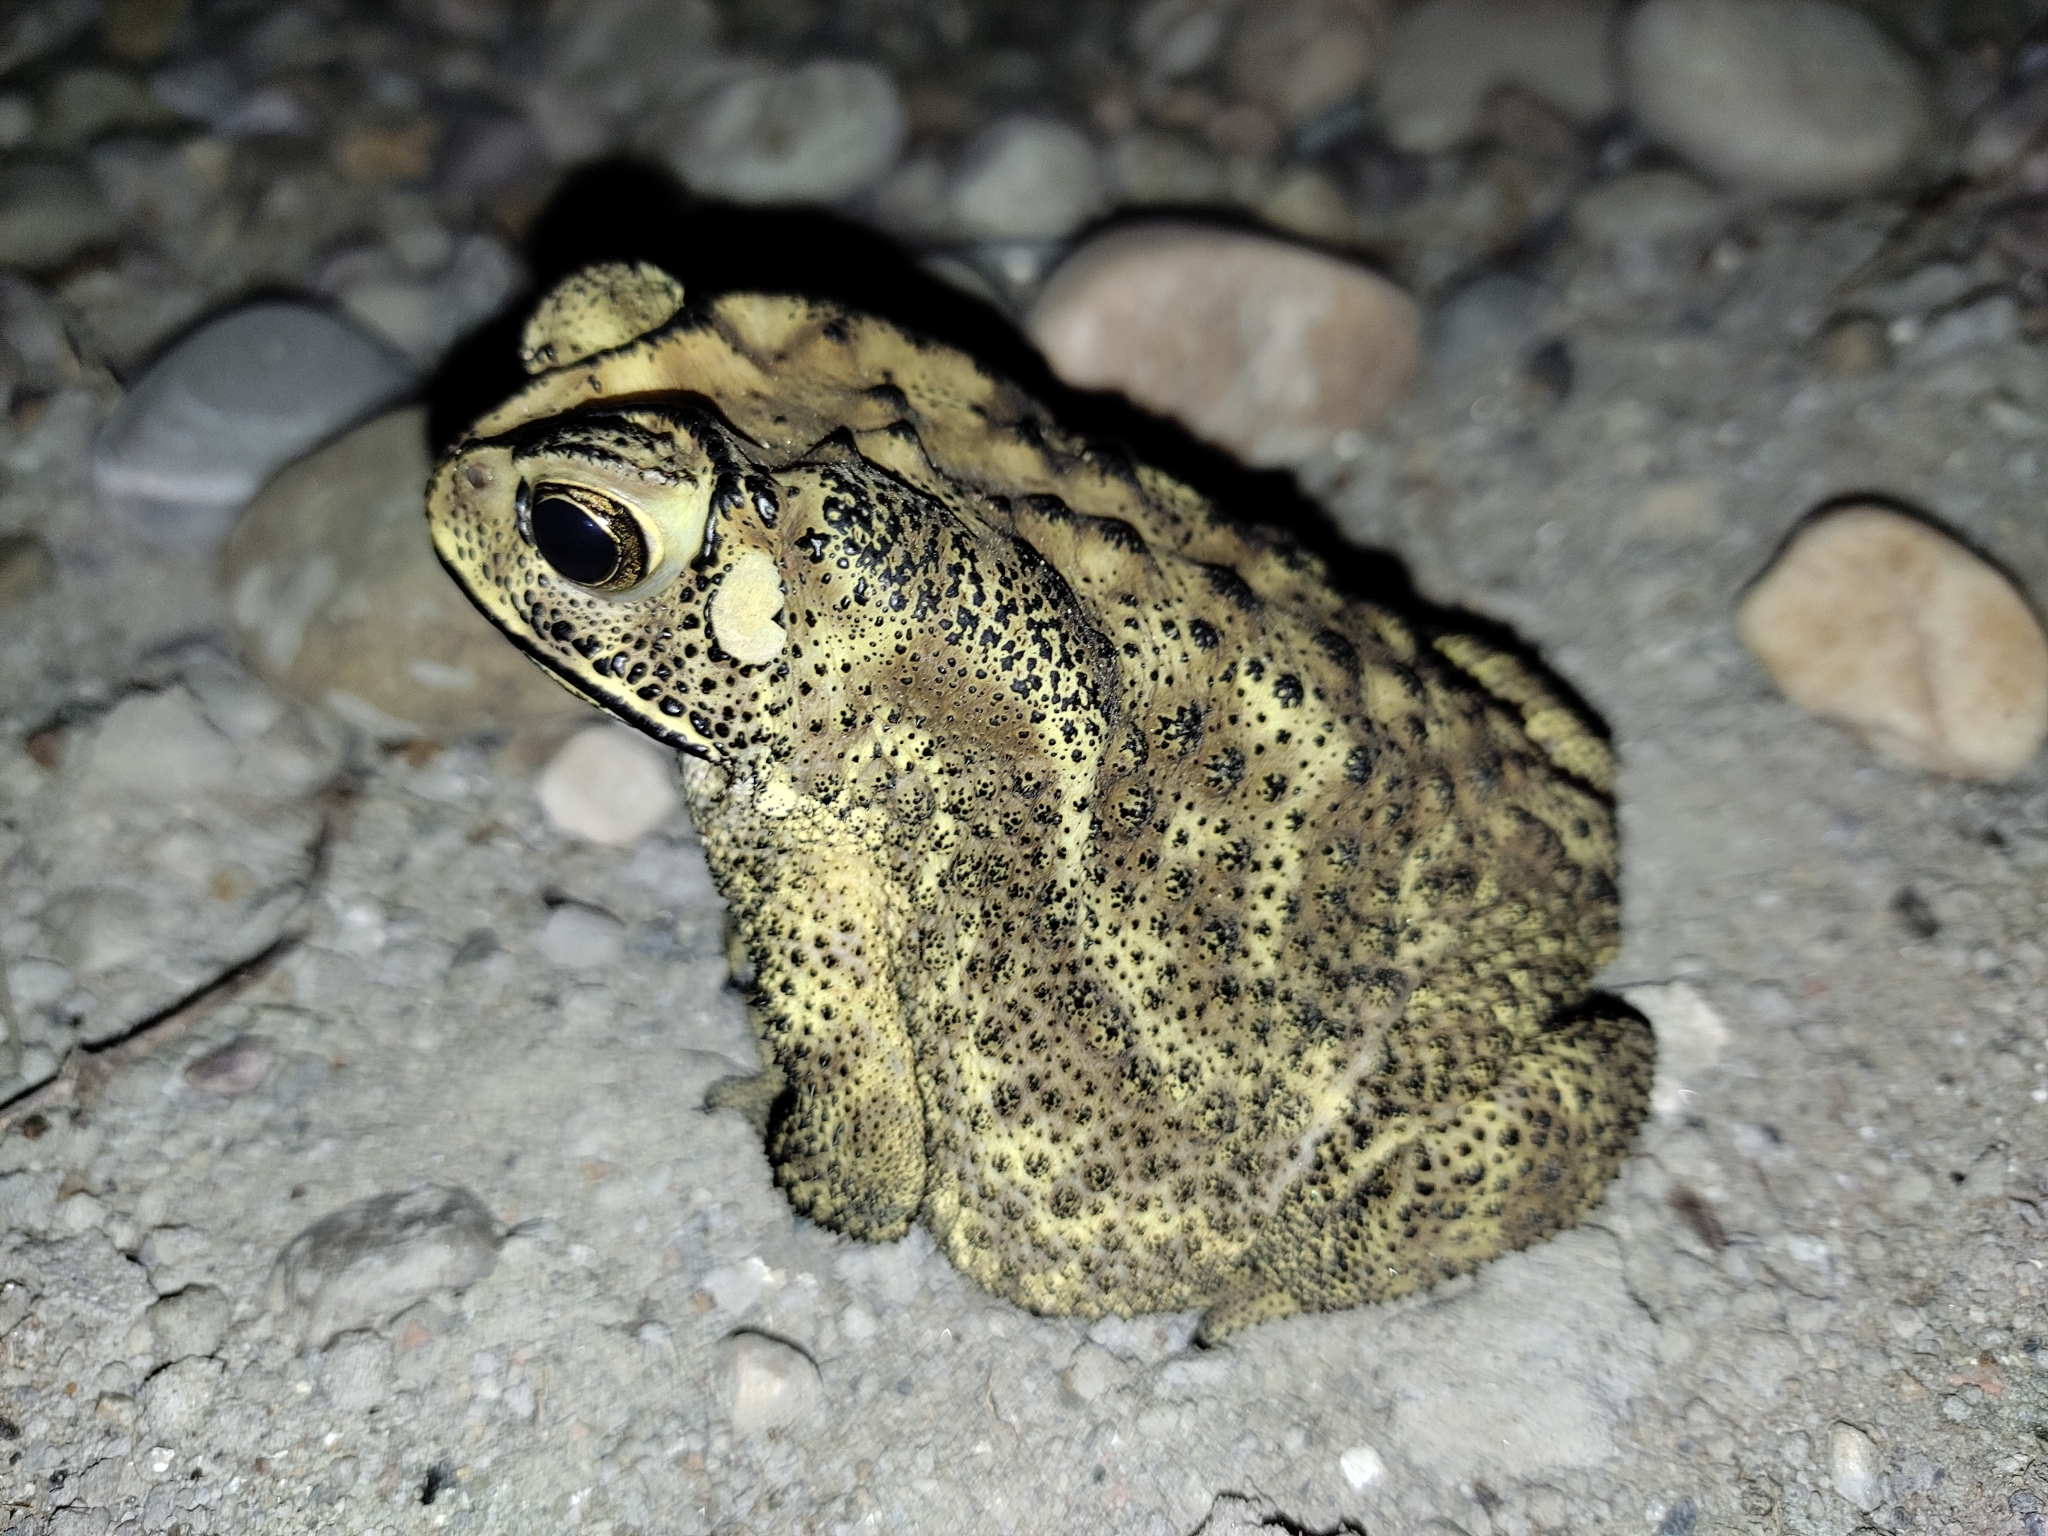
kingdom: Animalia
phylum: Chordata
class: Amphibia
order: Anura
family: Bufonidae
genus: Duttaphrynus
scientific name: Duttaphrynus melanostictus
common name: Common sunda toad
